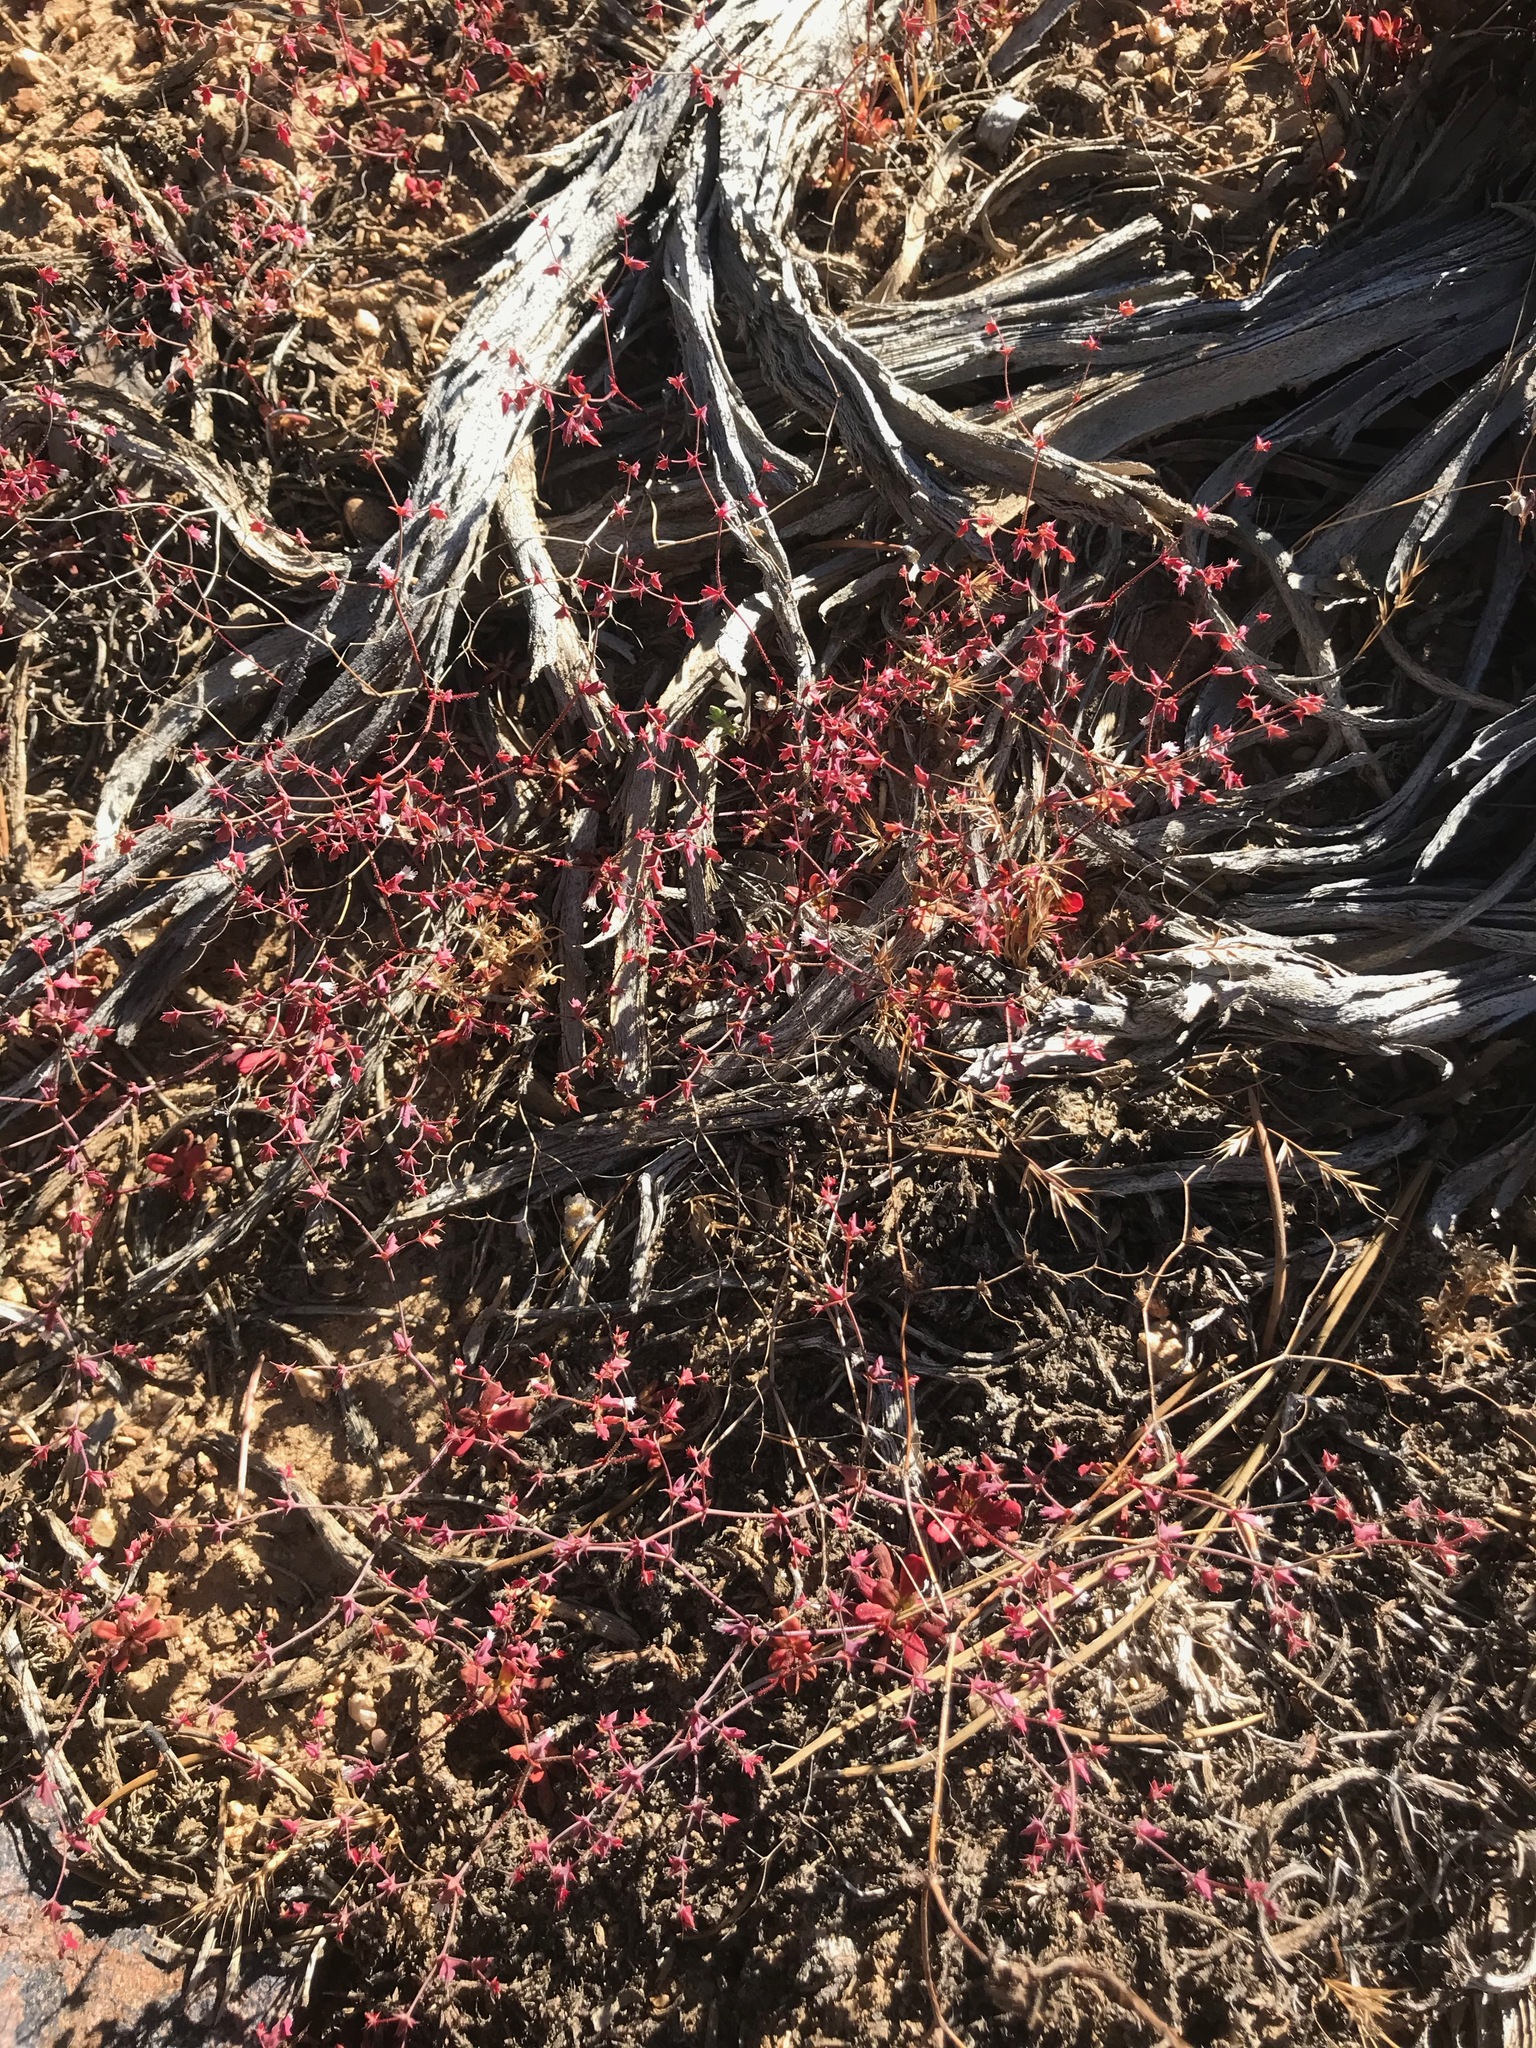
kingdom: Plantae
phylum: Tracheophyta
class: Magnoliopsida
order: Caryophyllales
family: Polygonaceae
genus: Centrostegia
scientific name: Centrostegia thurberi
